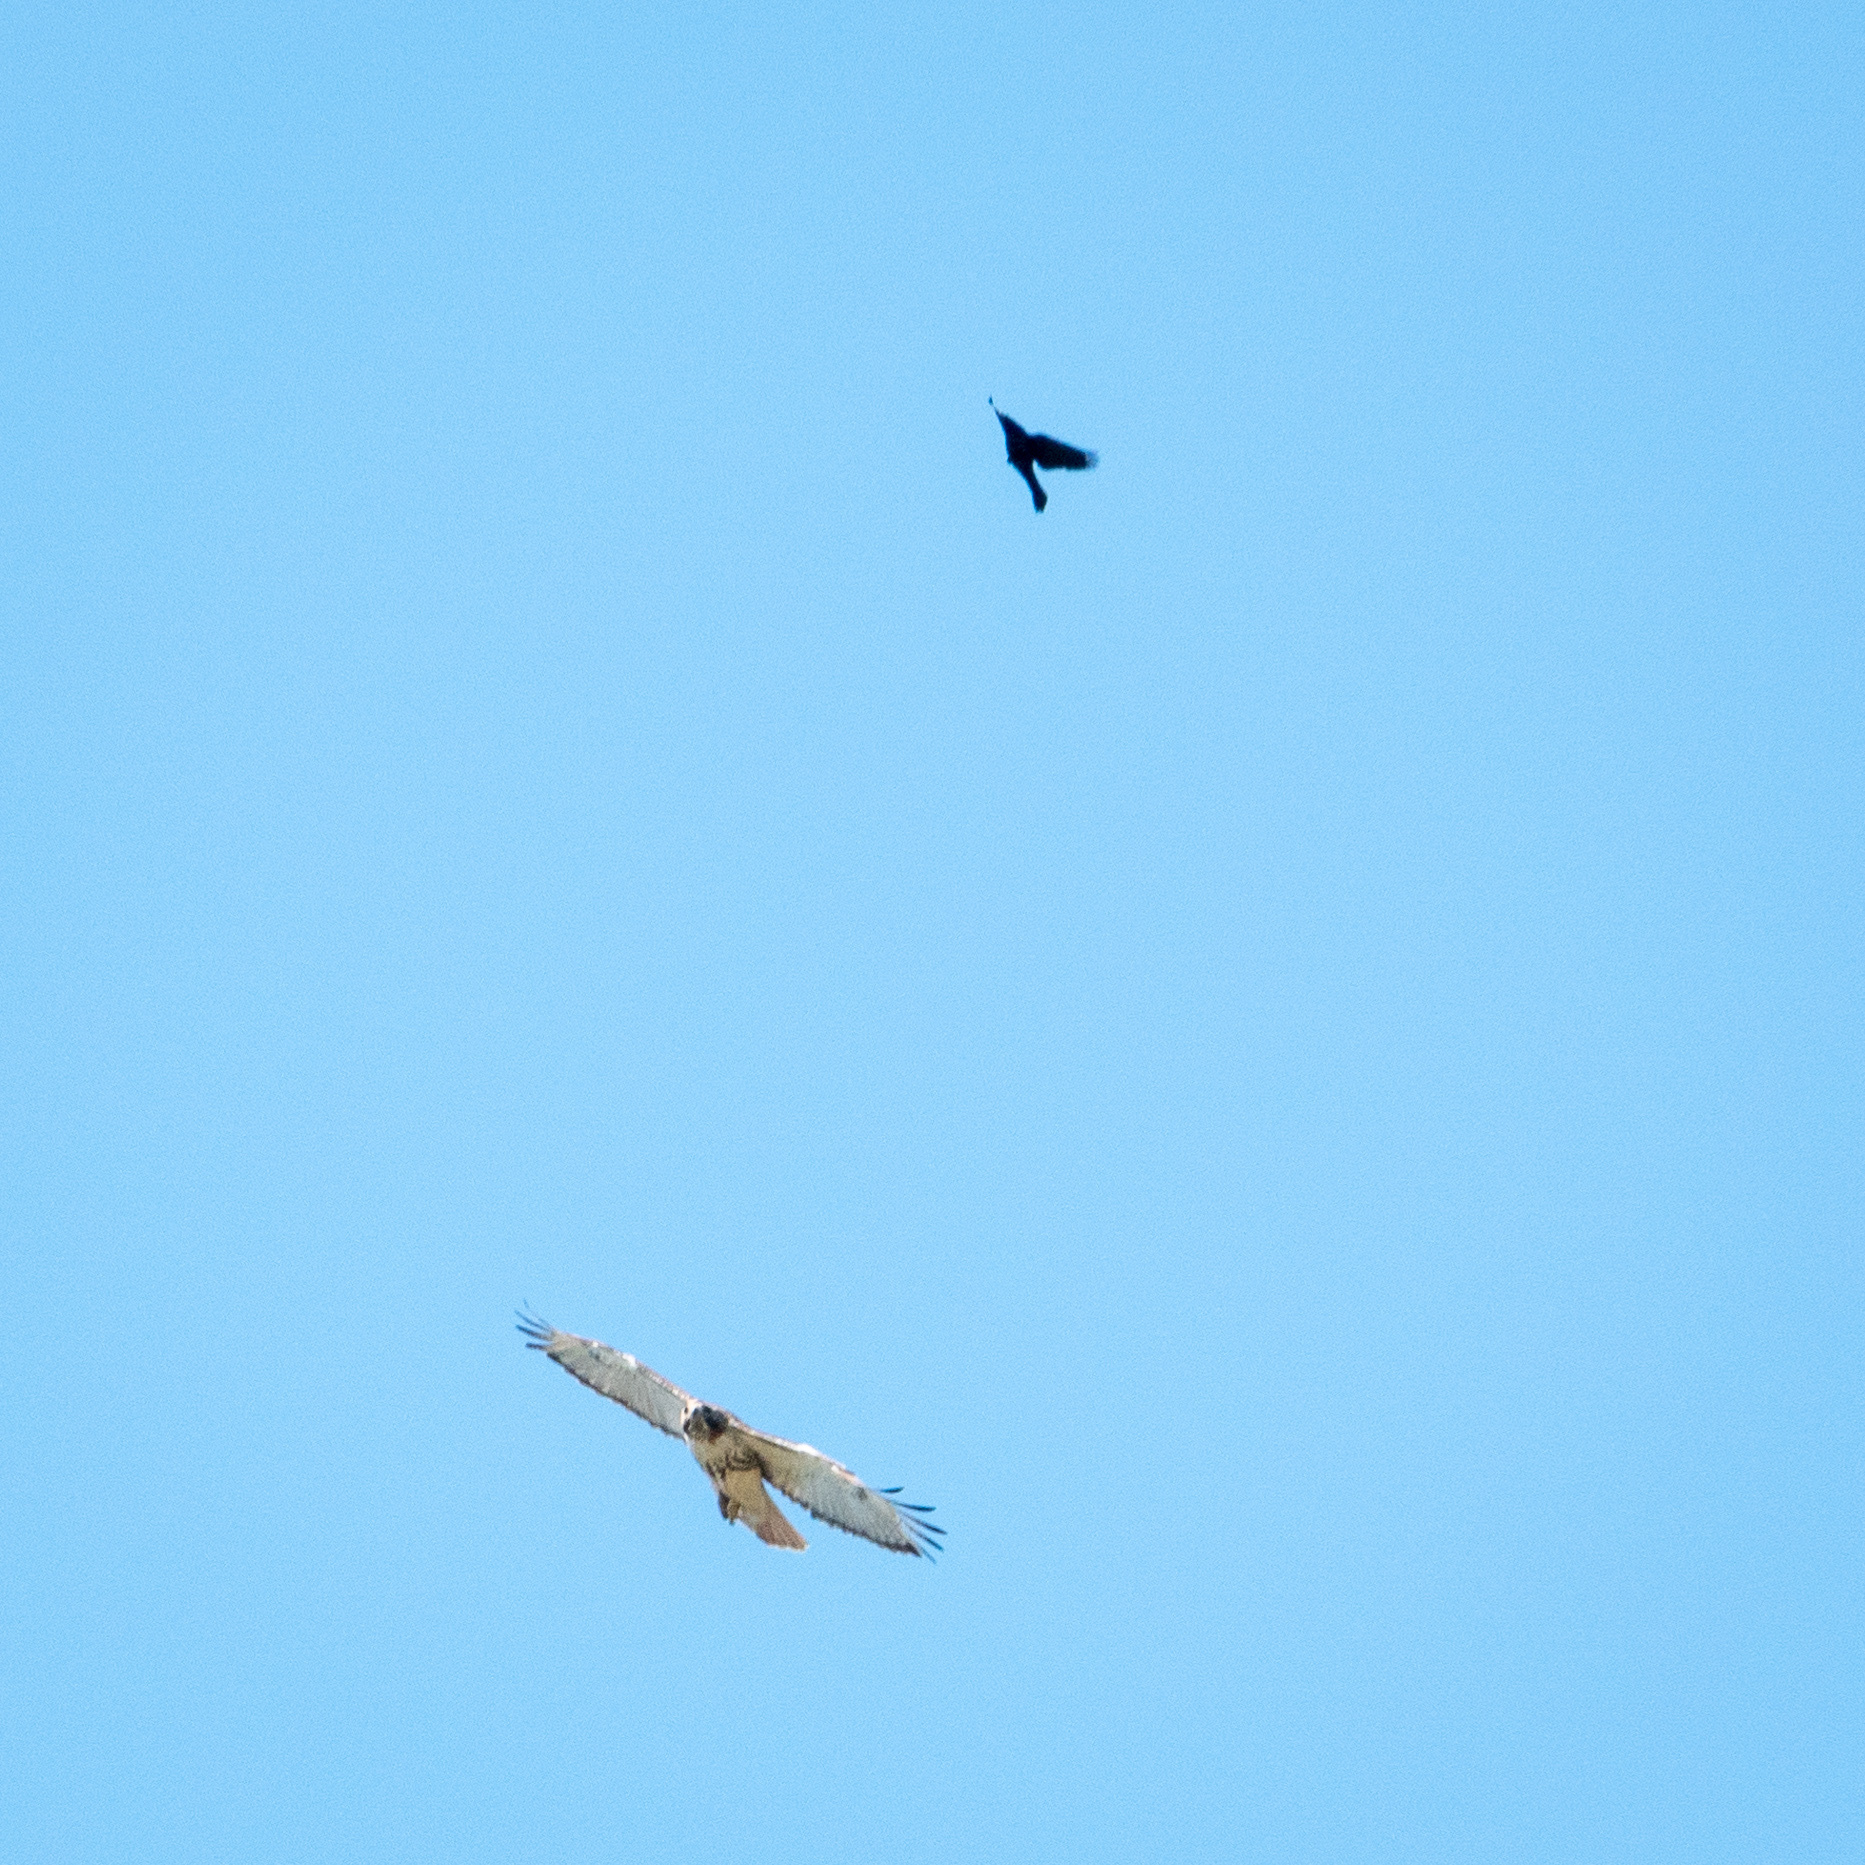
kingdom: Animalia
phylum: Chordata
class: Aves
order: Passeriformes
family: Icteridae
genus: Quiscalus
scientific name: Quiscalus quiscula
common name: Common grackle
